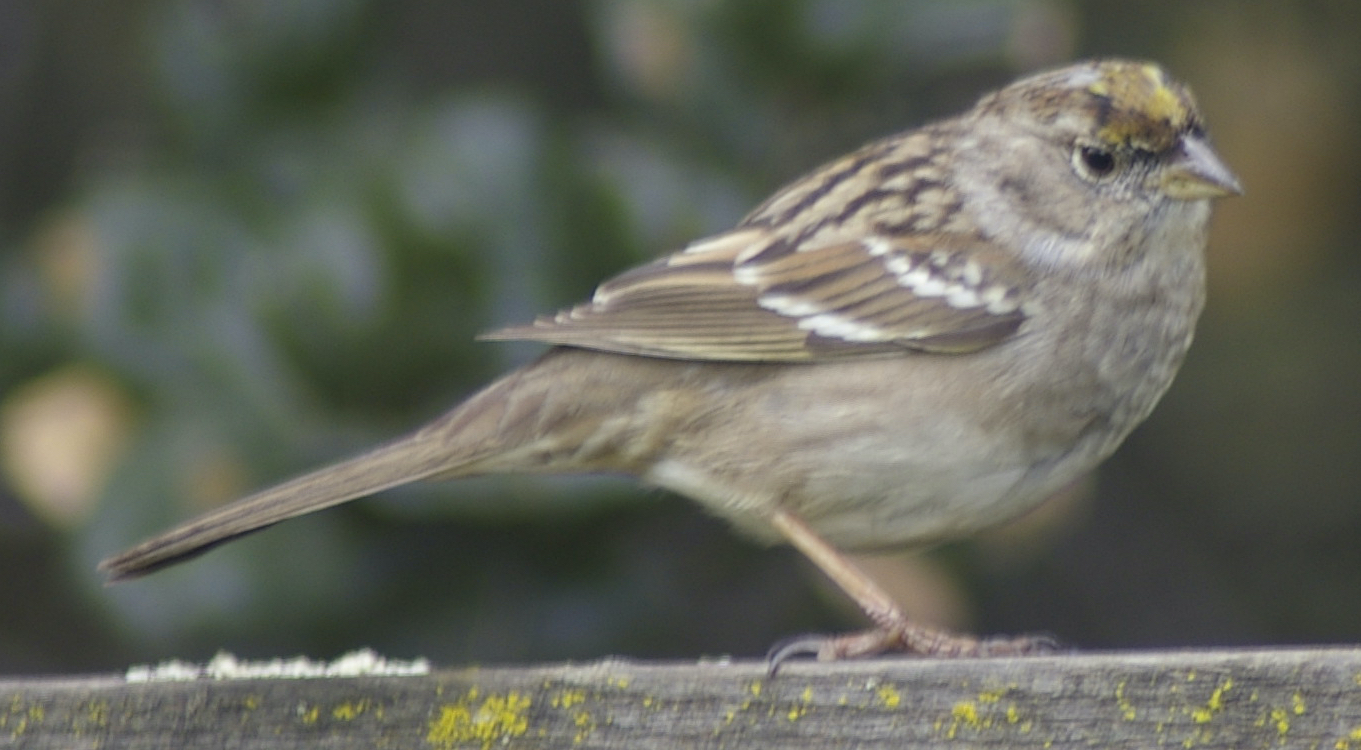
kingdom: Animalia
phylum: Chordata
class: Aves
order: Passeriformes
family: Passerellidae
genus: Zonotrichia
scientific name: Zonotrichia atricapilla
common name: Golden-crowned sparrow
